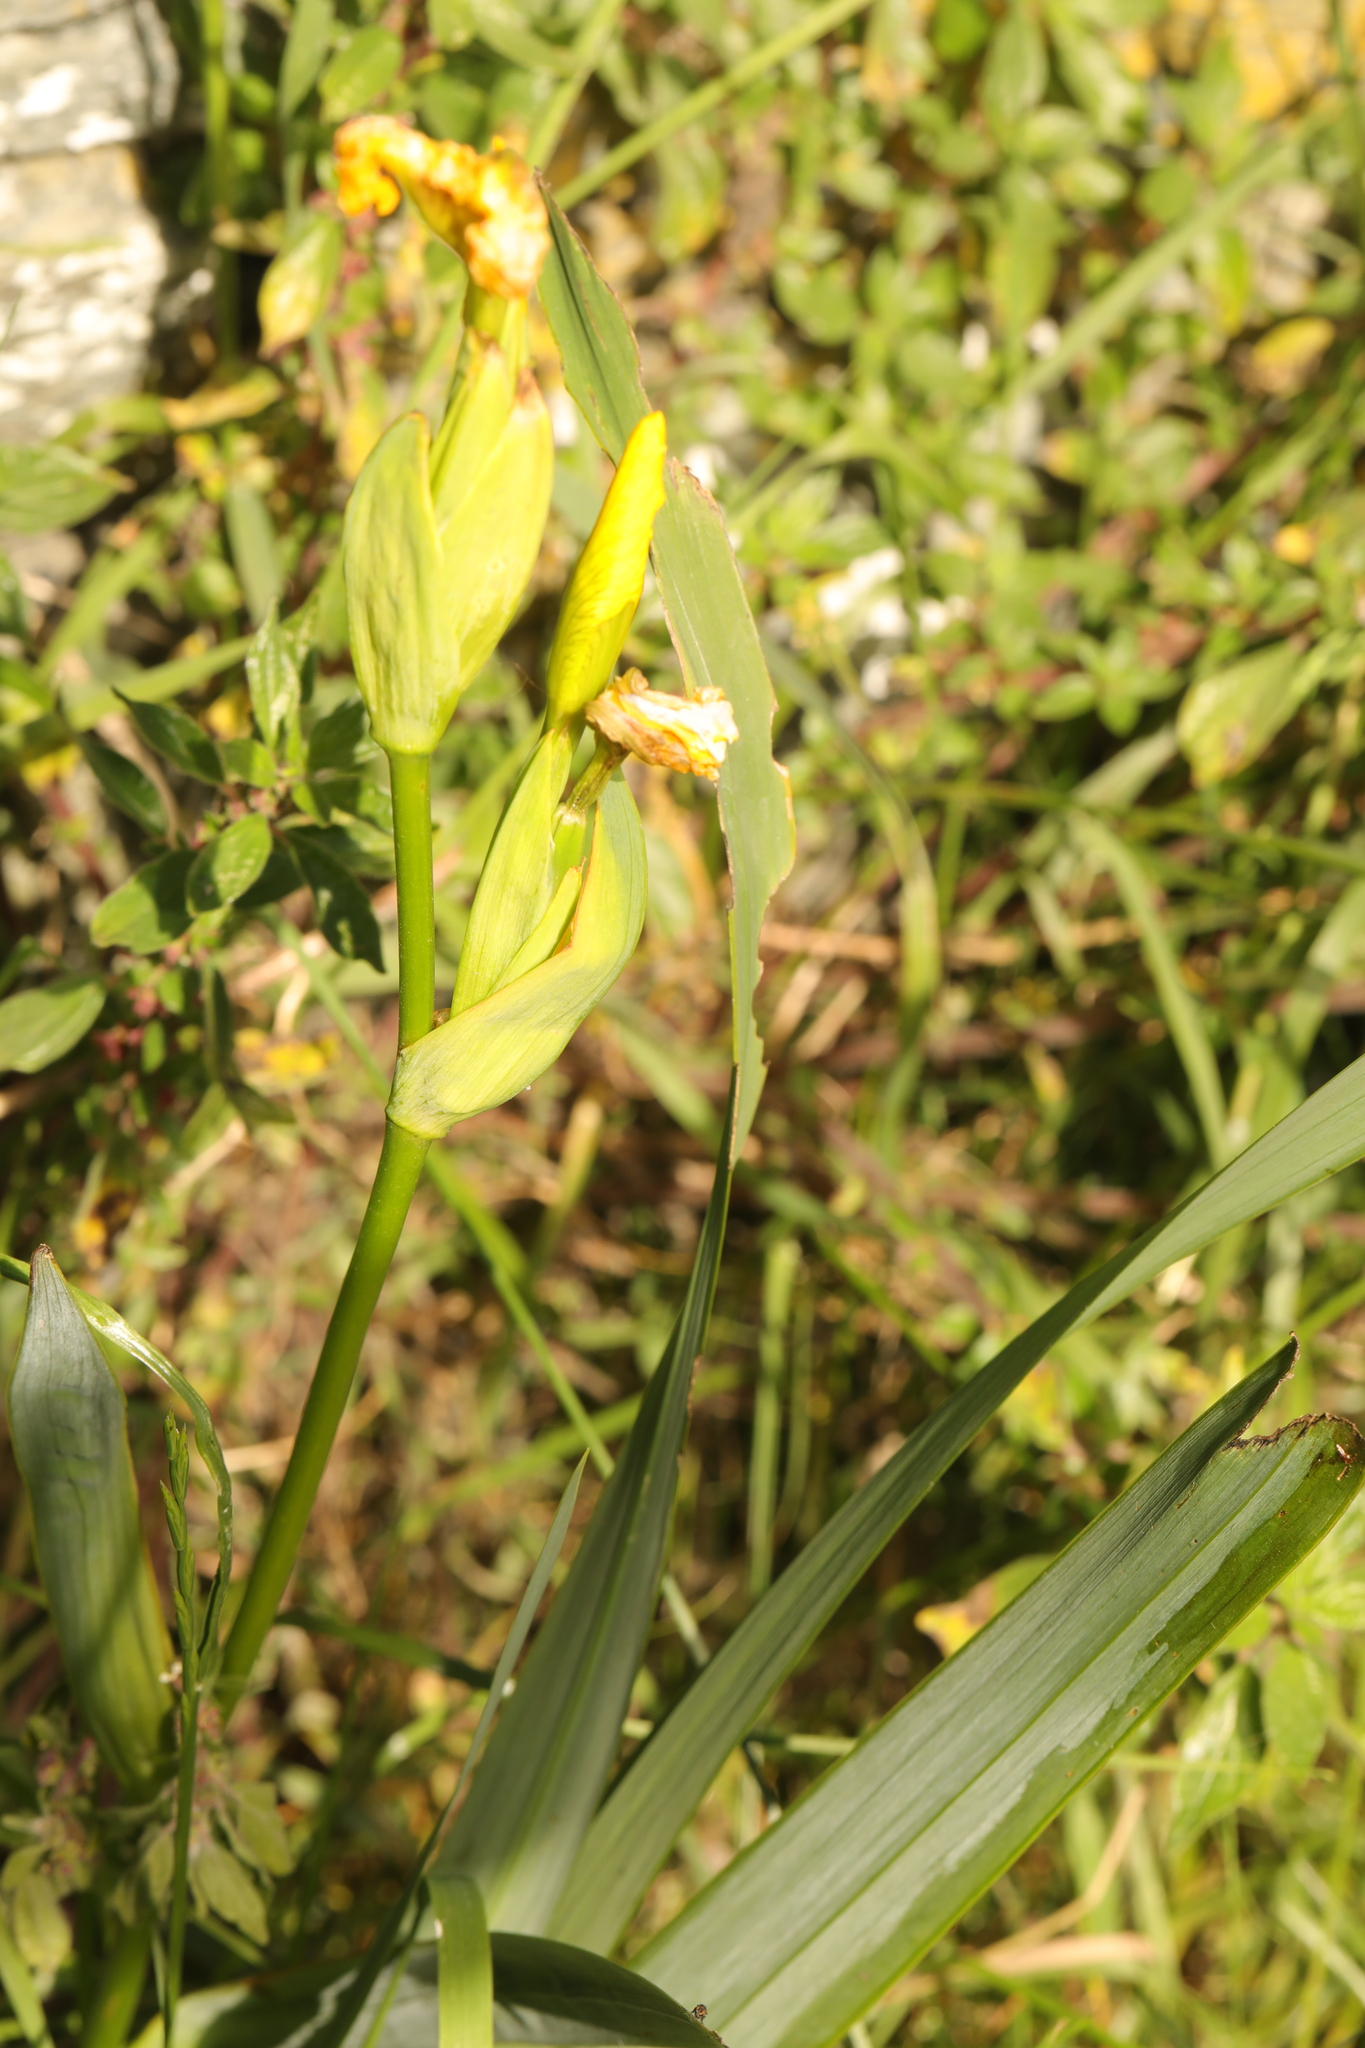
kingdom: Plantae
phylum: Tracheophyta
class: Liliopsida
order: Asparagales
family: Iridaceae
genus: Iris
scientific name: Iris pseudacorus
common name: Yellow flag
